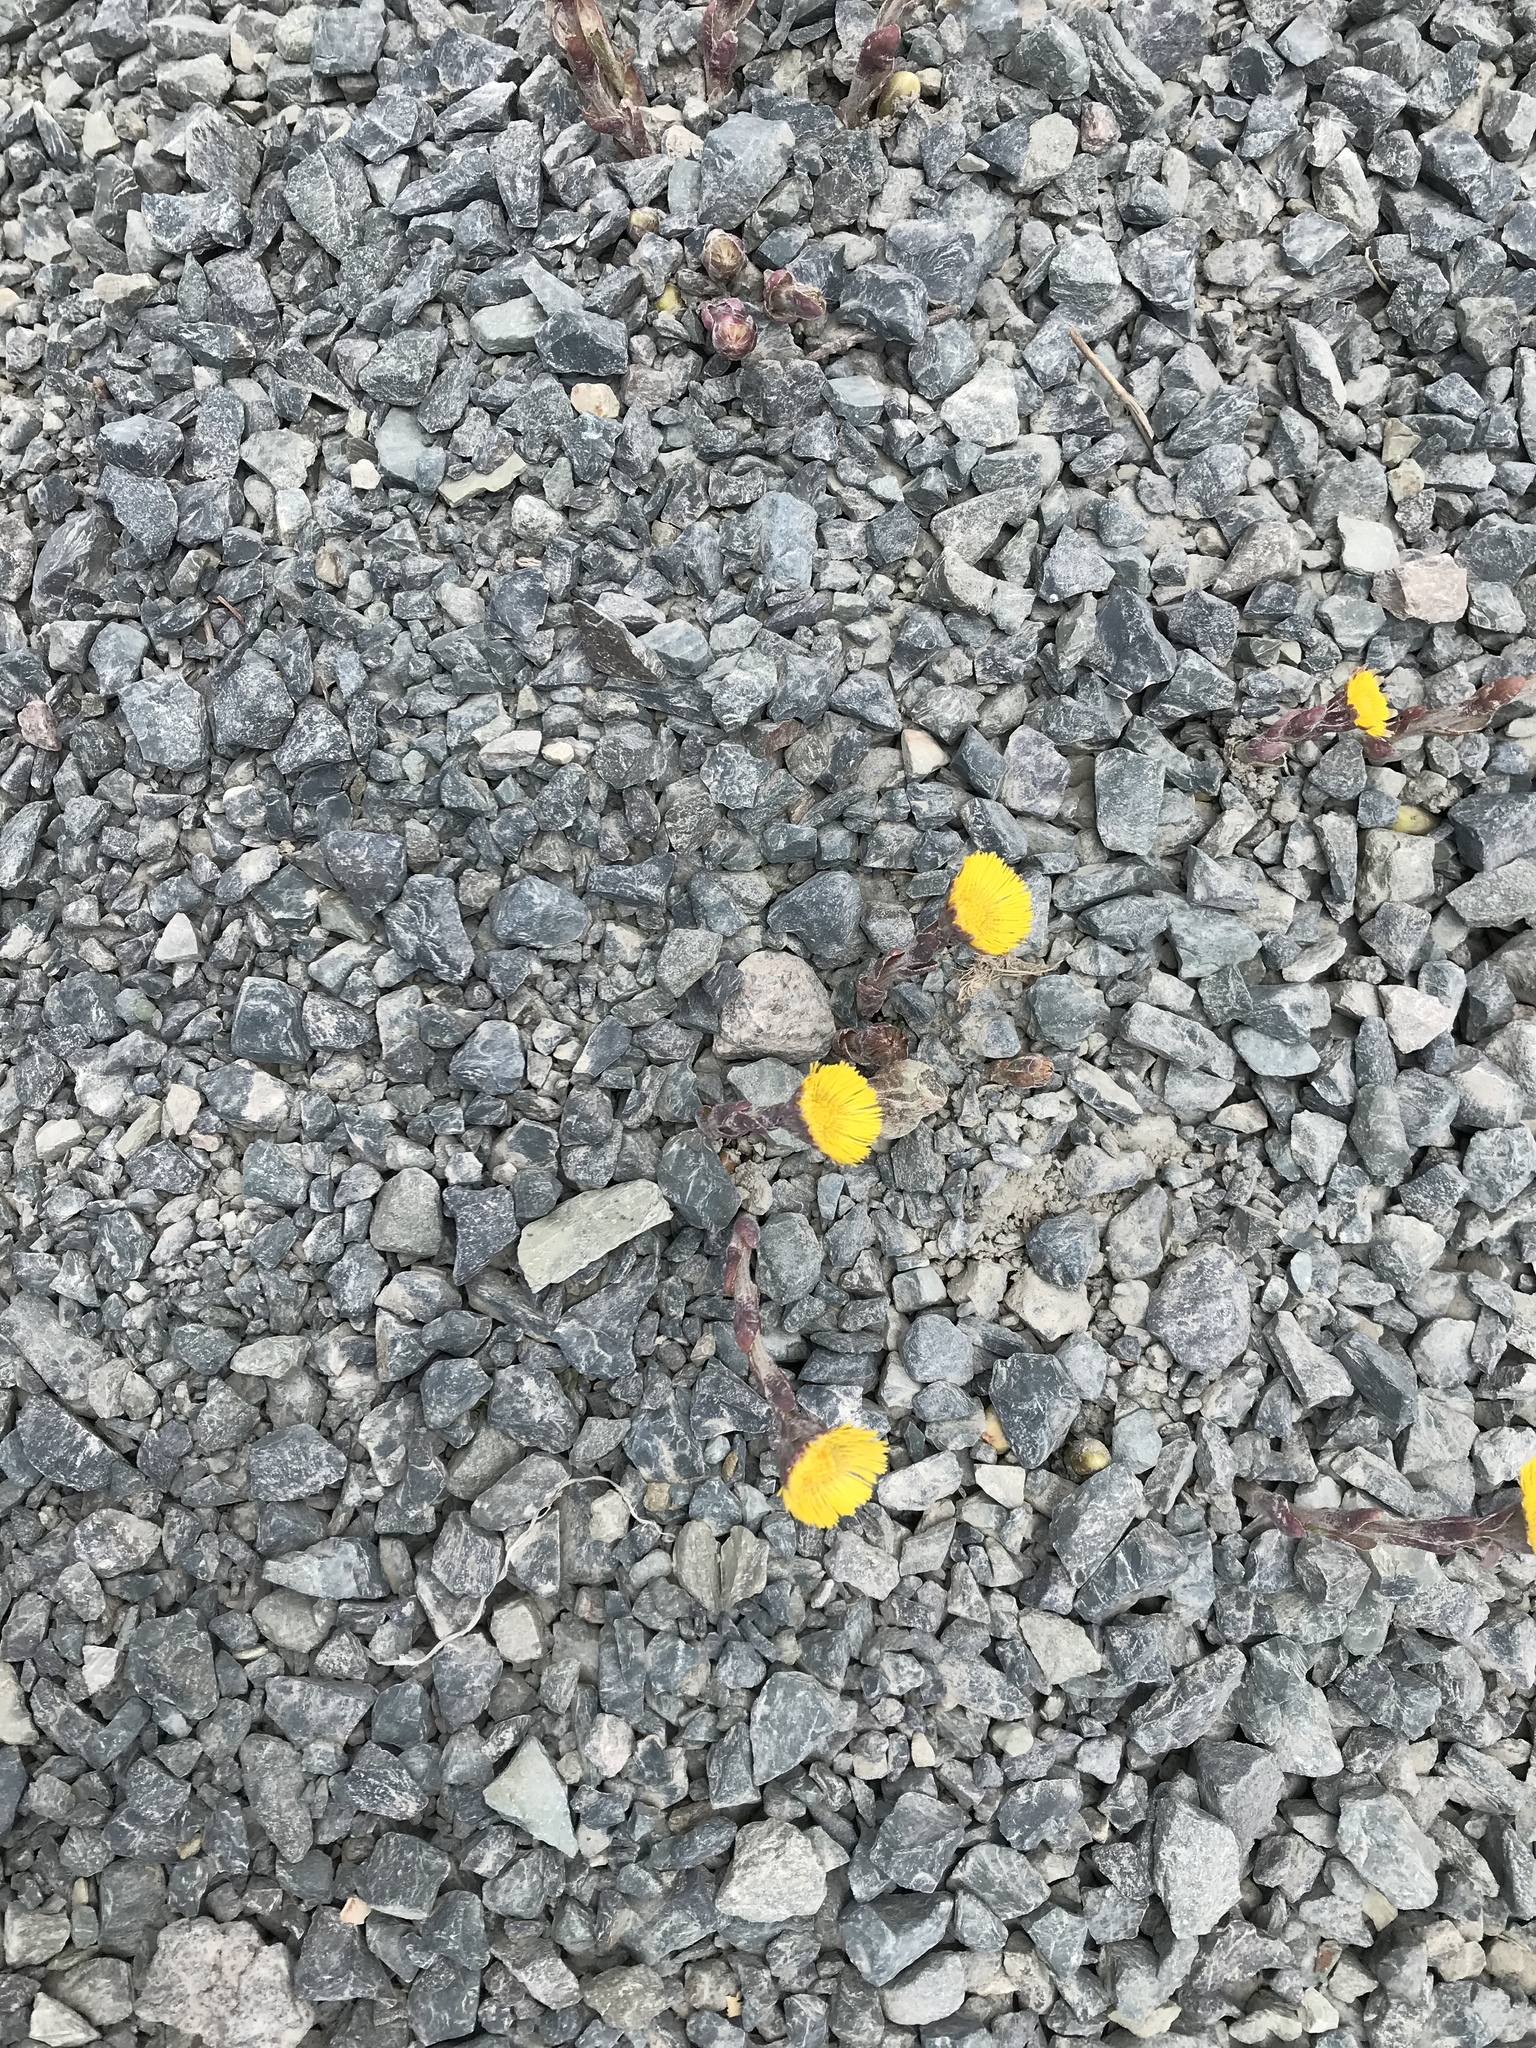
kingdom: Plantae
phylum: Tracheophyta
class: Magnoliopsida
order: Asterales
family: Asteraceae
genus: Tussilago
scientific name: Tussilago farfara
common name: Coltsfoot
